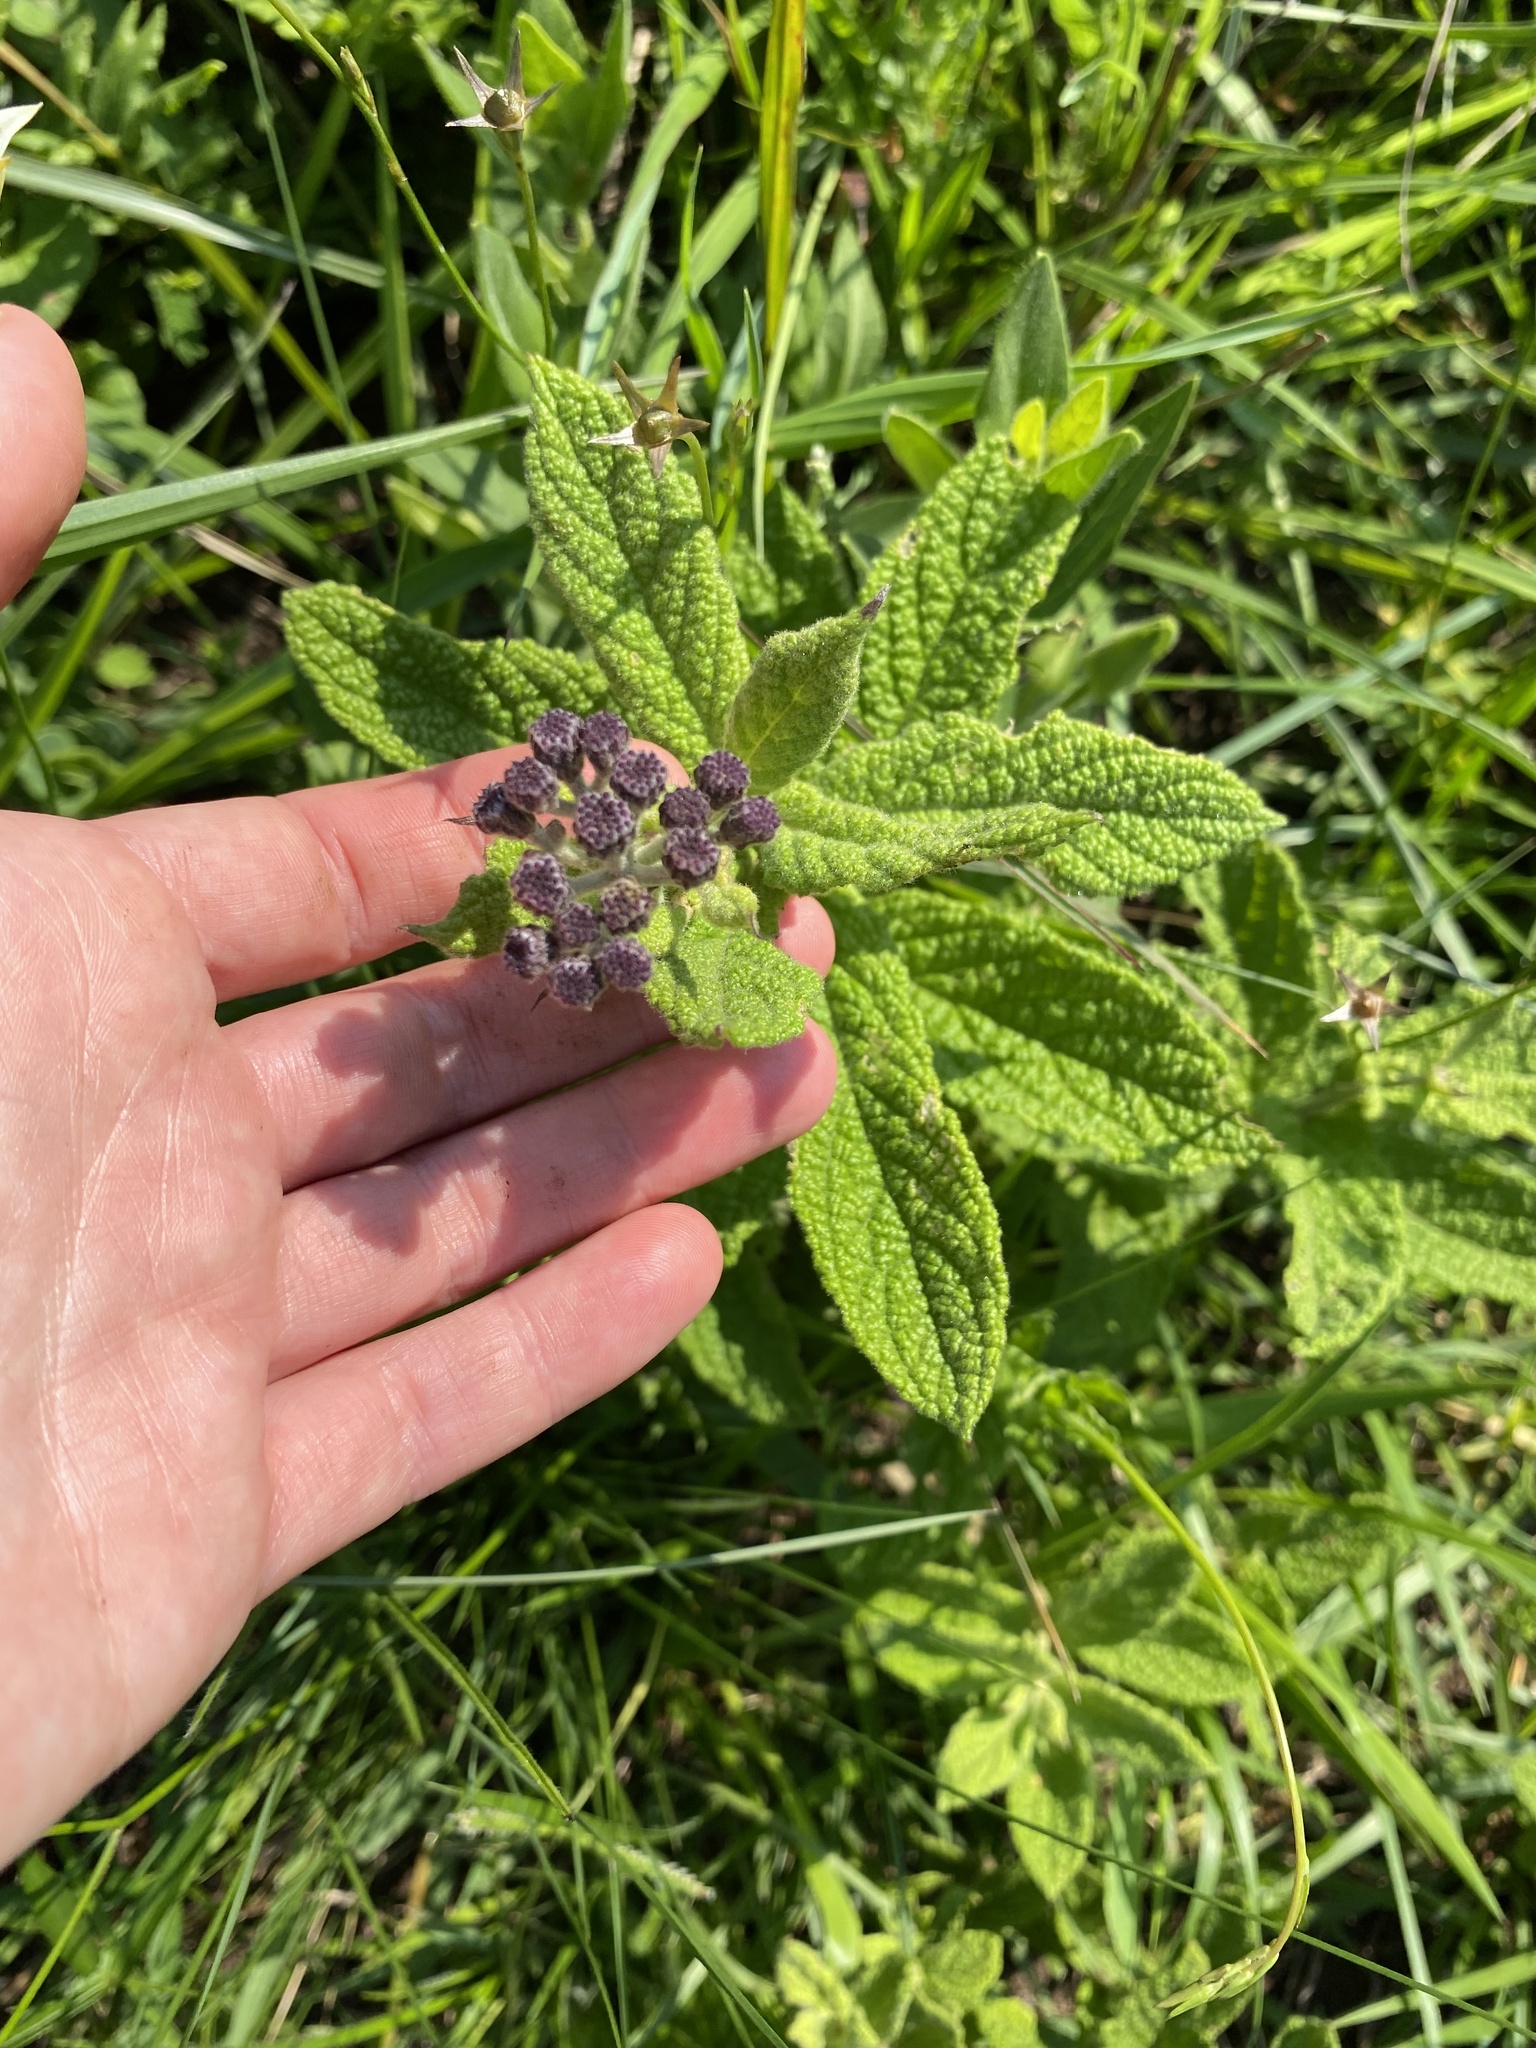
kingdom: Plantae
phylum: Tracheophyta
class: Magnoliopsida
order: Asterales
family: Asteraceae
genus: Hilliardiella
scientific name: Hilliardiella hirsuta
